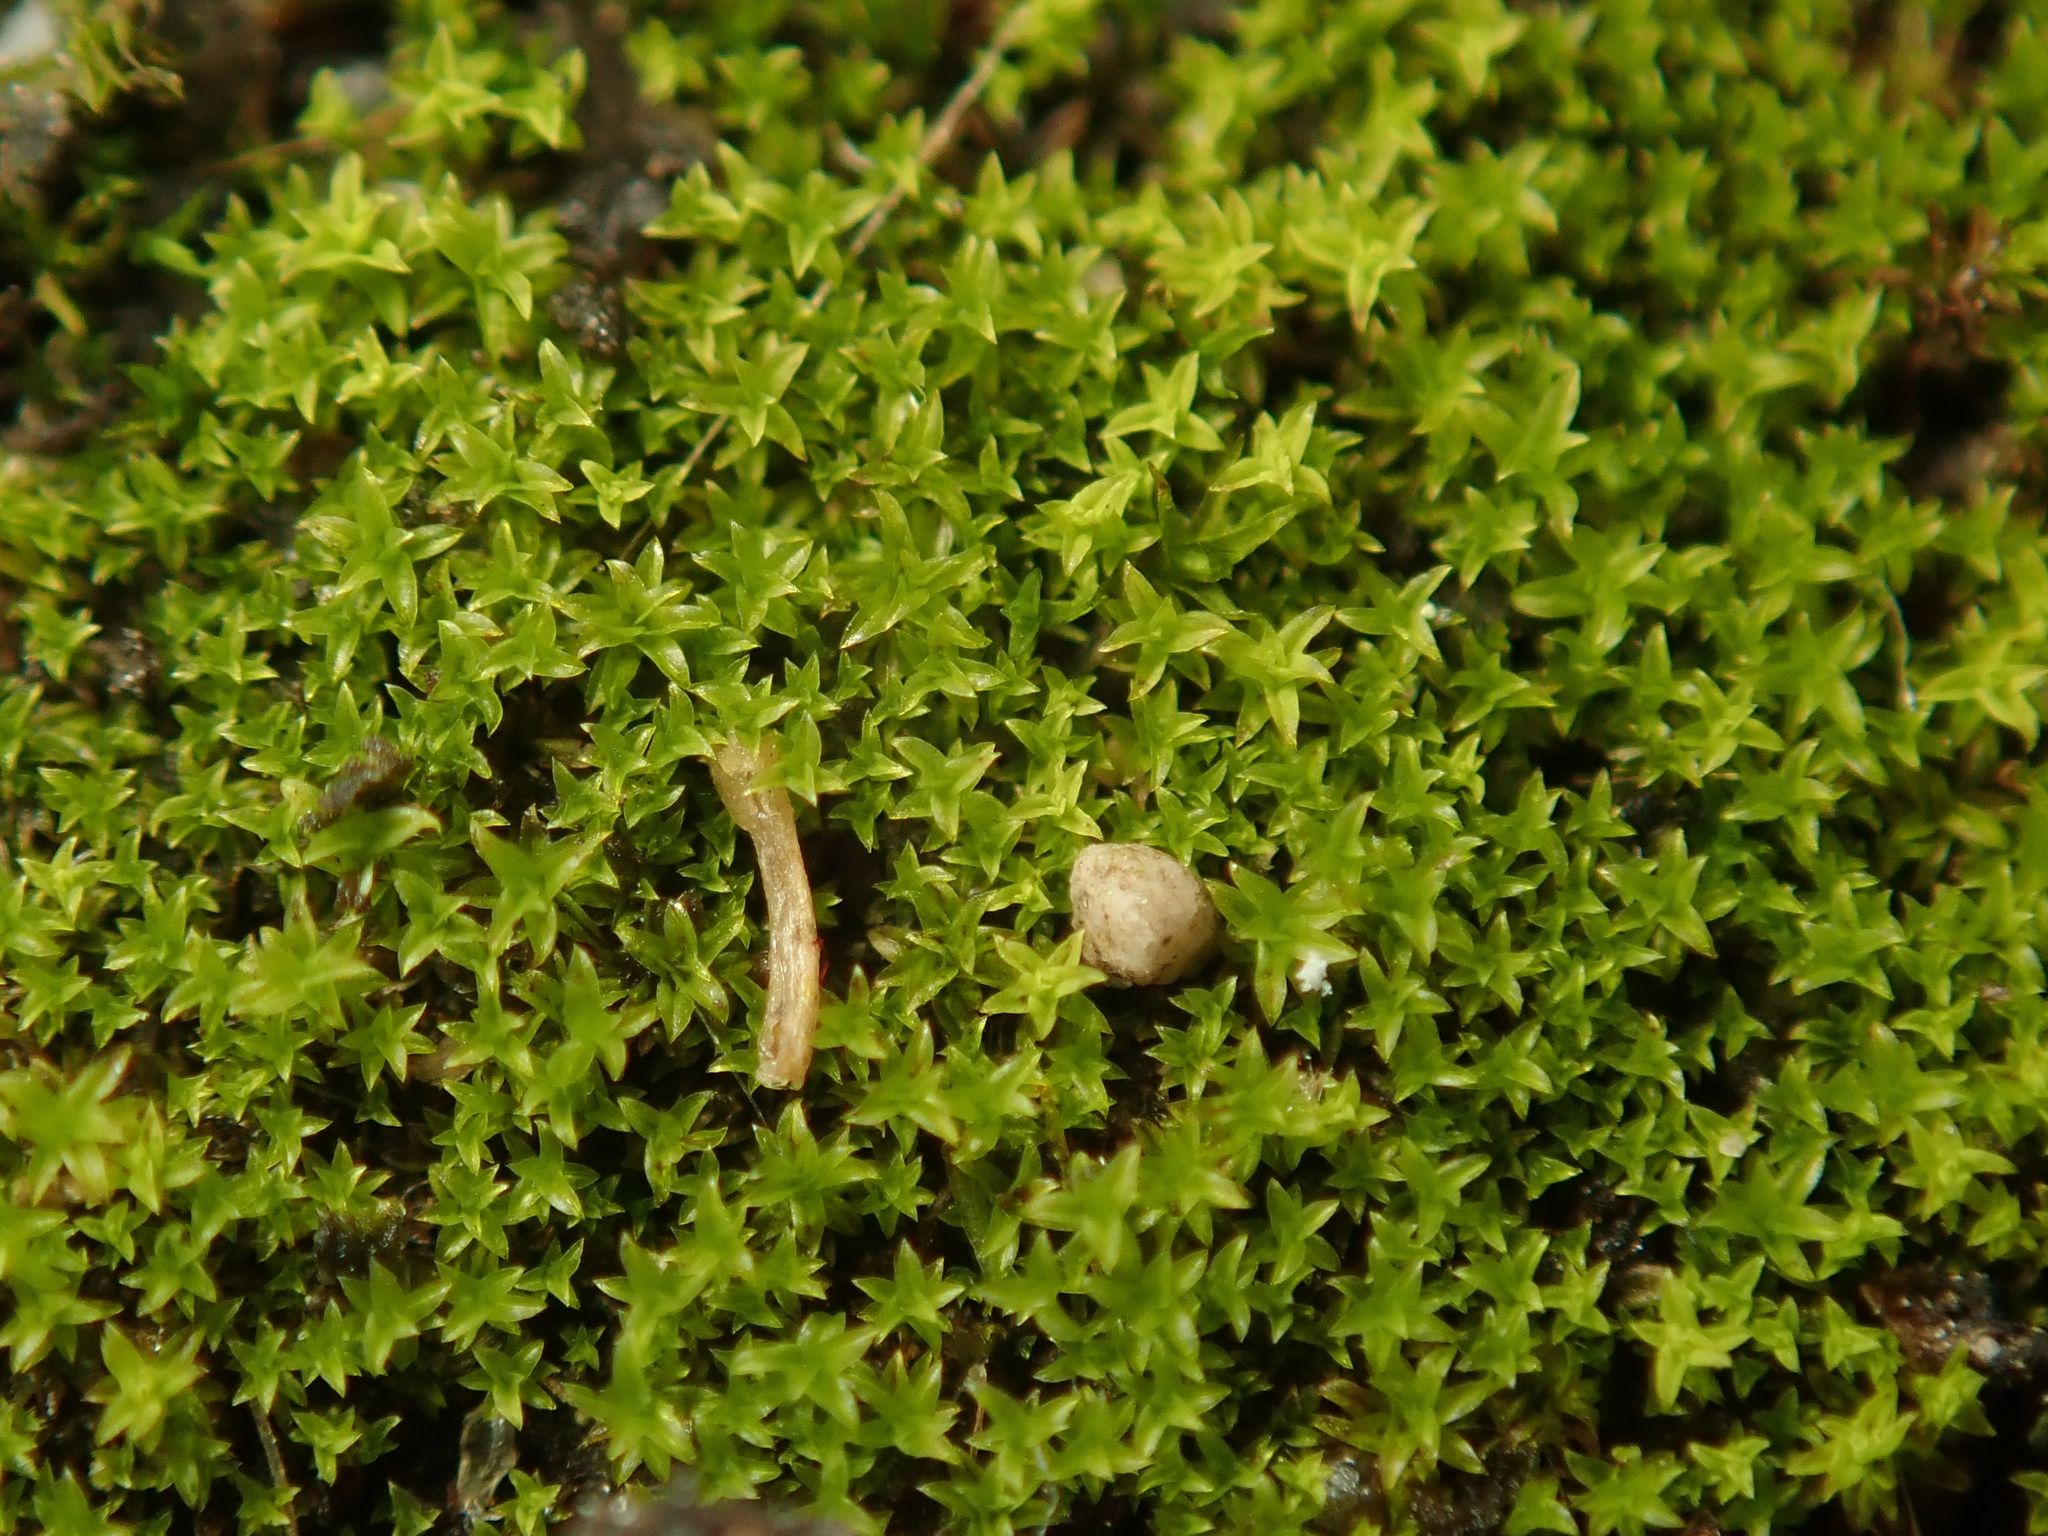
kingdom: Plantae
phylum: Bryophyta
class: Bryopsida
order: Pottiales
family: Pottiaceae
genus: Barbula
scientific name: Barbula unguiculata
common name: Prickly beard moss
